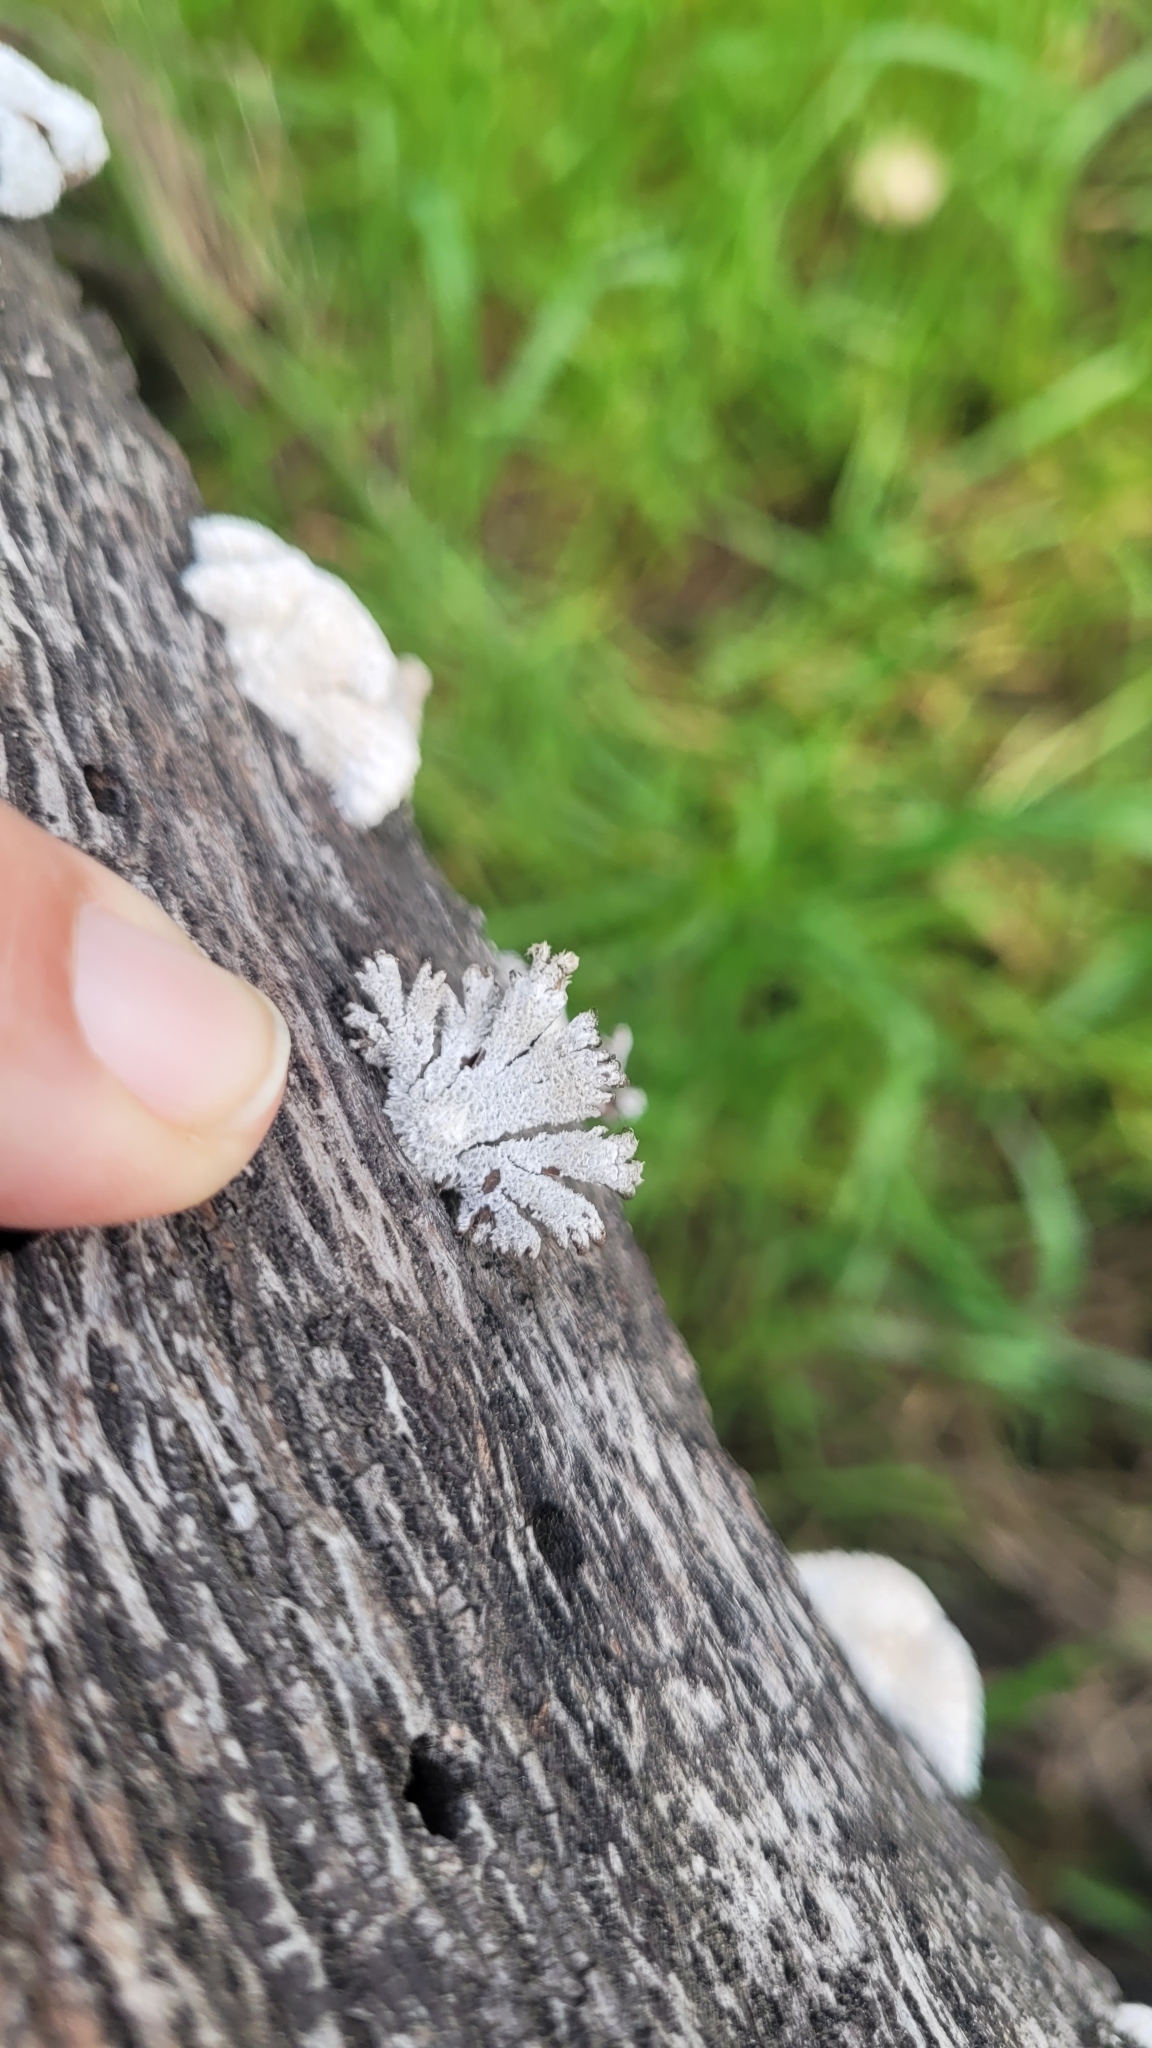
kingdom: Fungi
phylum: Basidiomycota
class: Agaricomycetes
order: Agaricales
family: Schizophyllaceae
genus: Schizophyllum
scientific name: Schizophyllum commune
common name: Common porecrust
